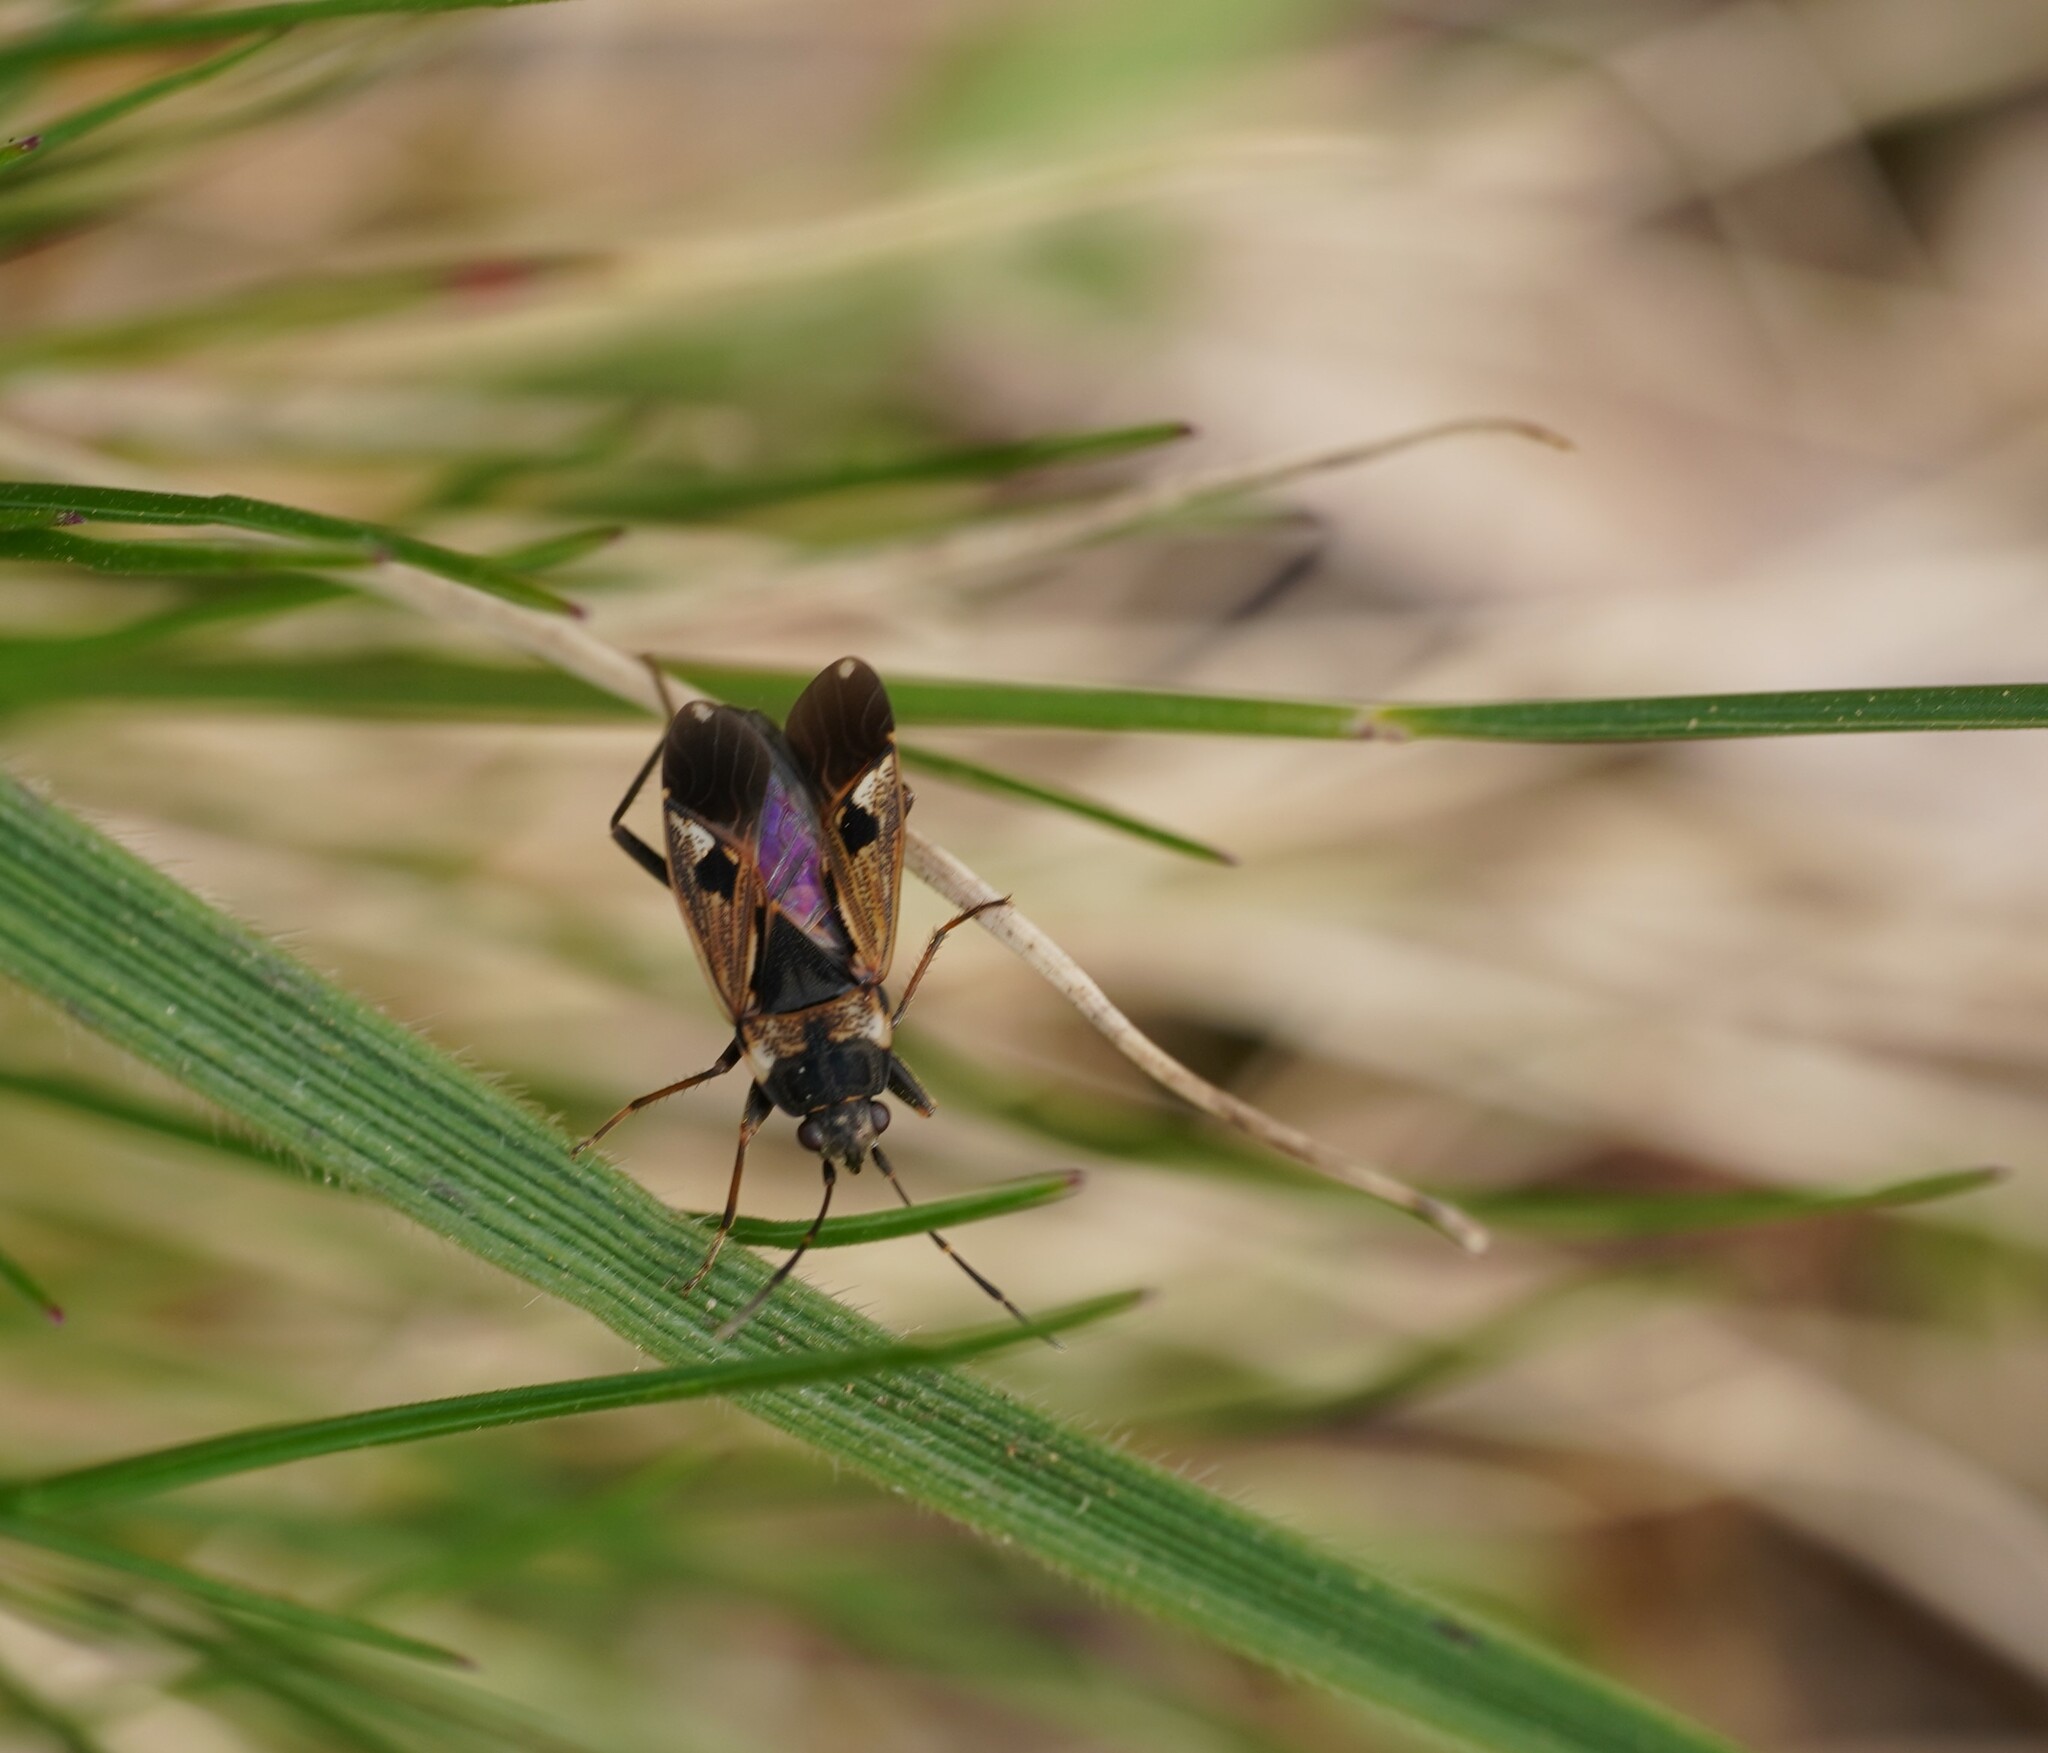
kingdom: Animalia
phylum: Arthropoda
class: Insecta
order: Hemiptera
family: Rhyparochromidae
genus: Rhyparochromus
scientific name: Rhyparochromus vulgaris
